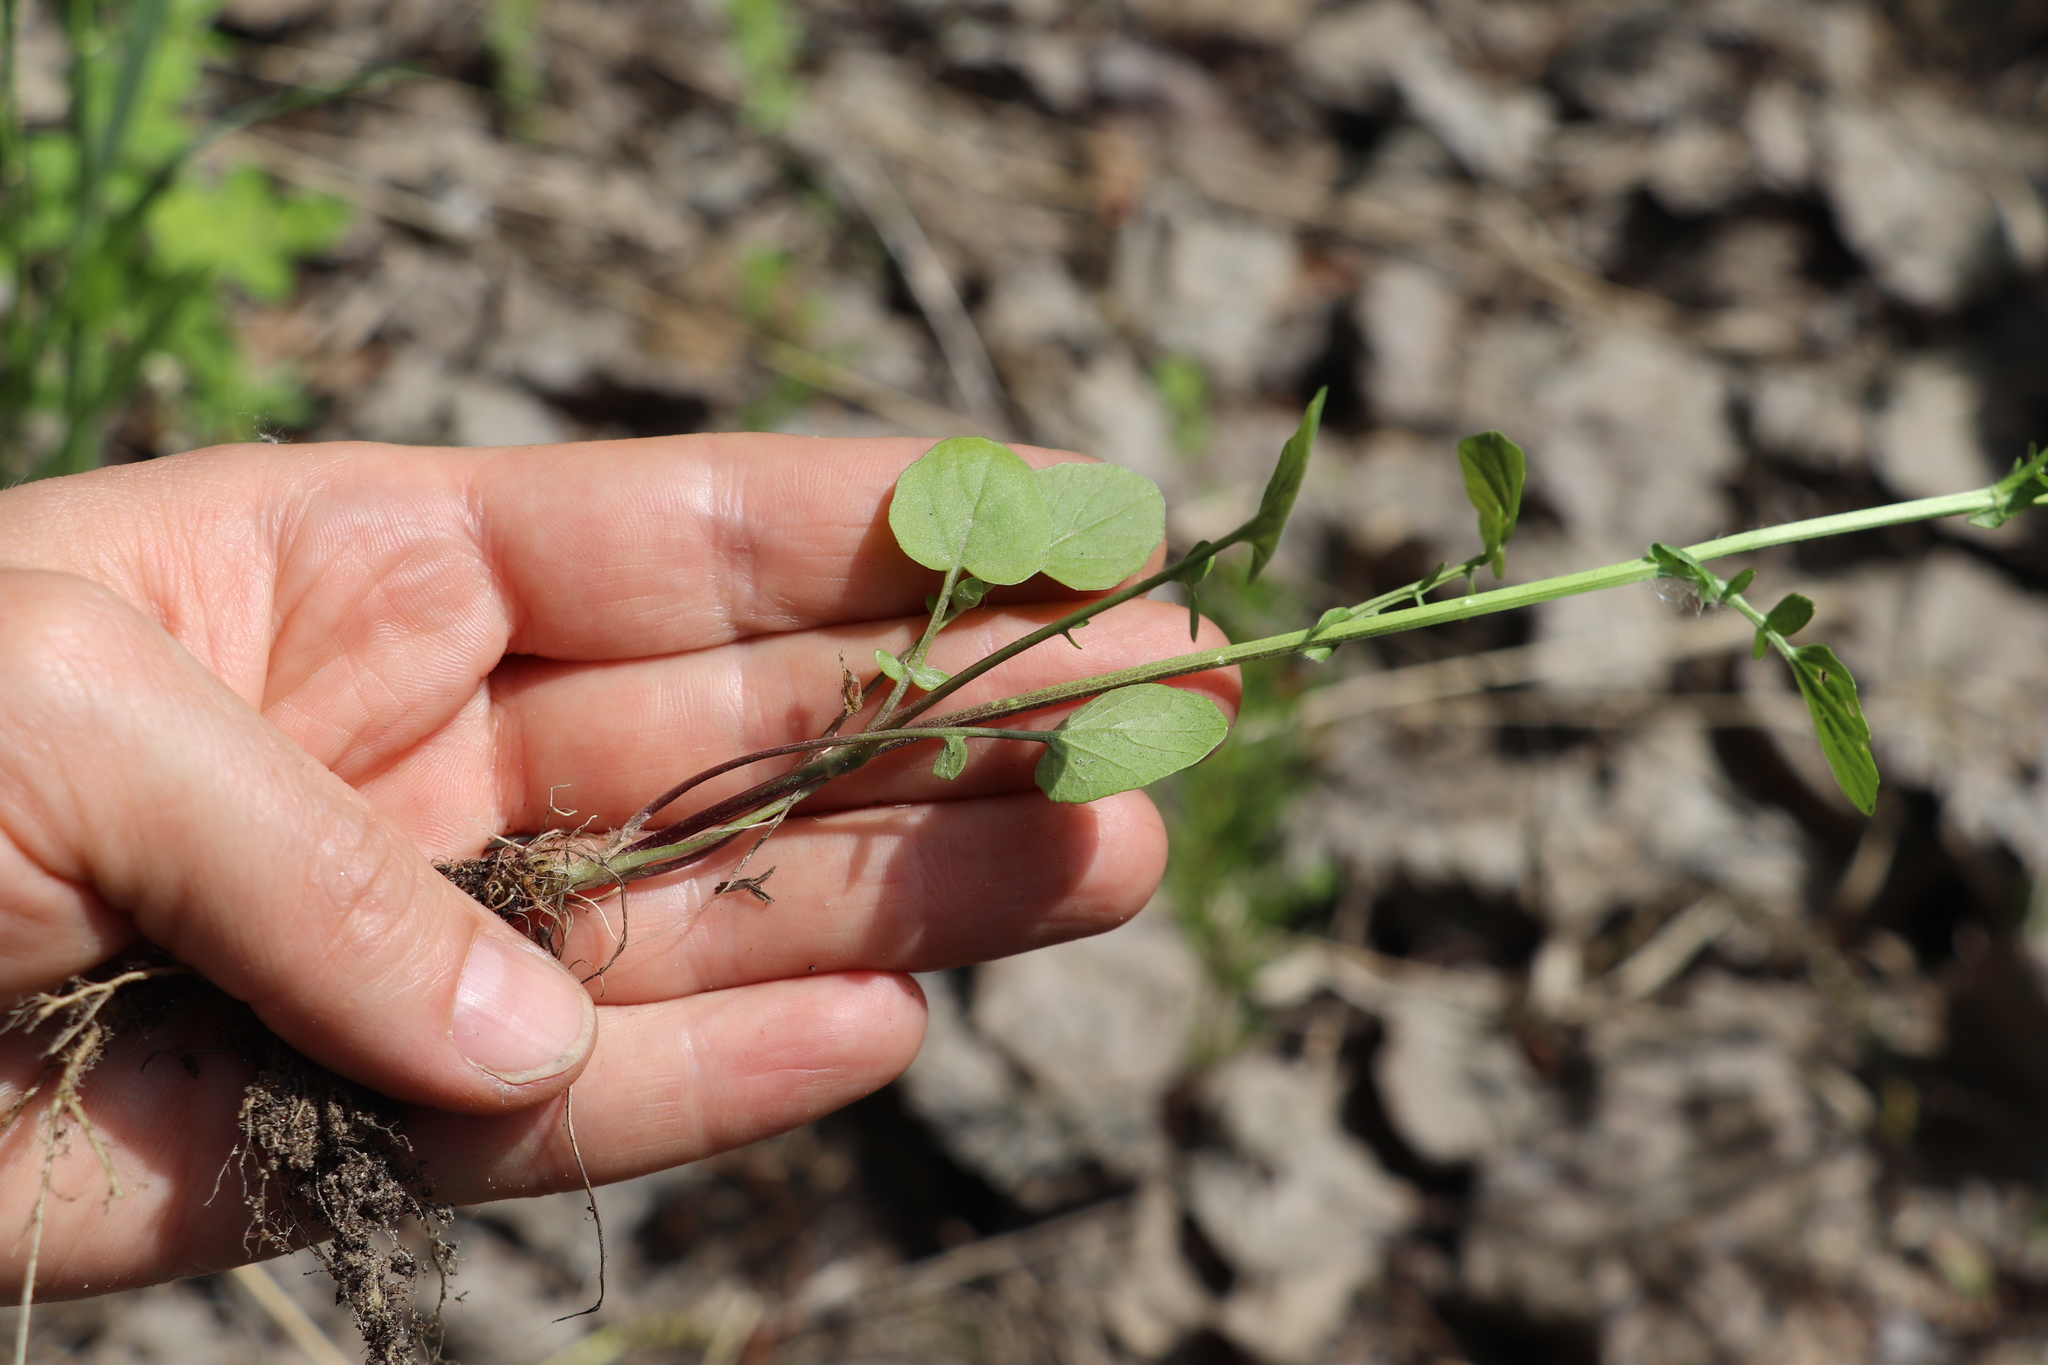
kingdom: Plantae
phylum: Tracheophyta
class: Magnoliopsida
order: Brassicales
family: Brassicaceae
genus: Barbarea
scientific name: Barbarea vulgaris
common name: Cressy-greens
